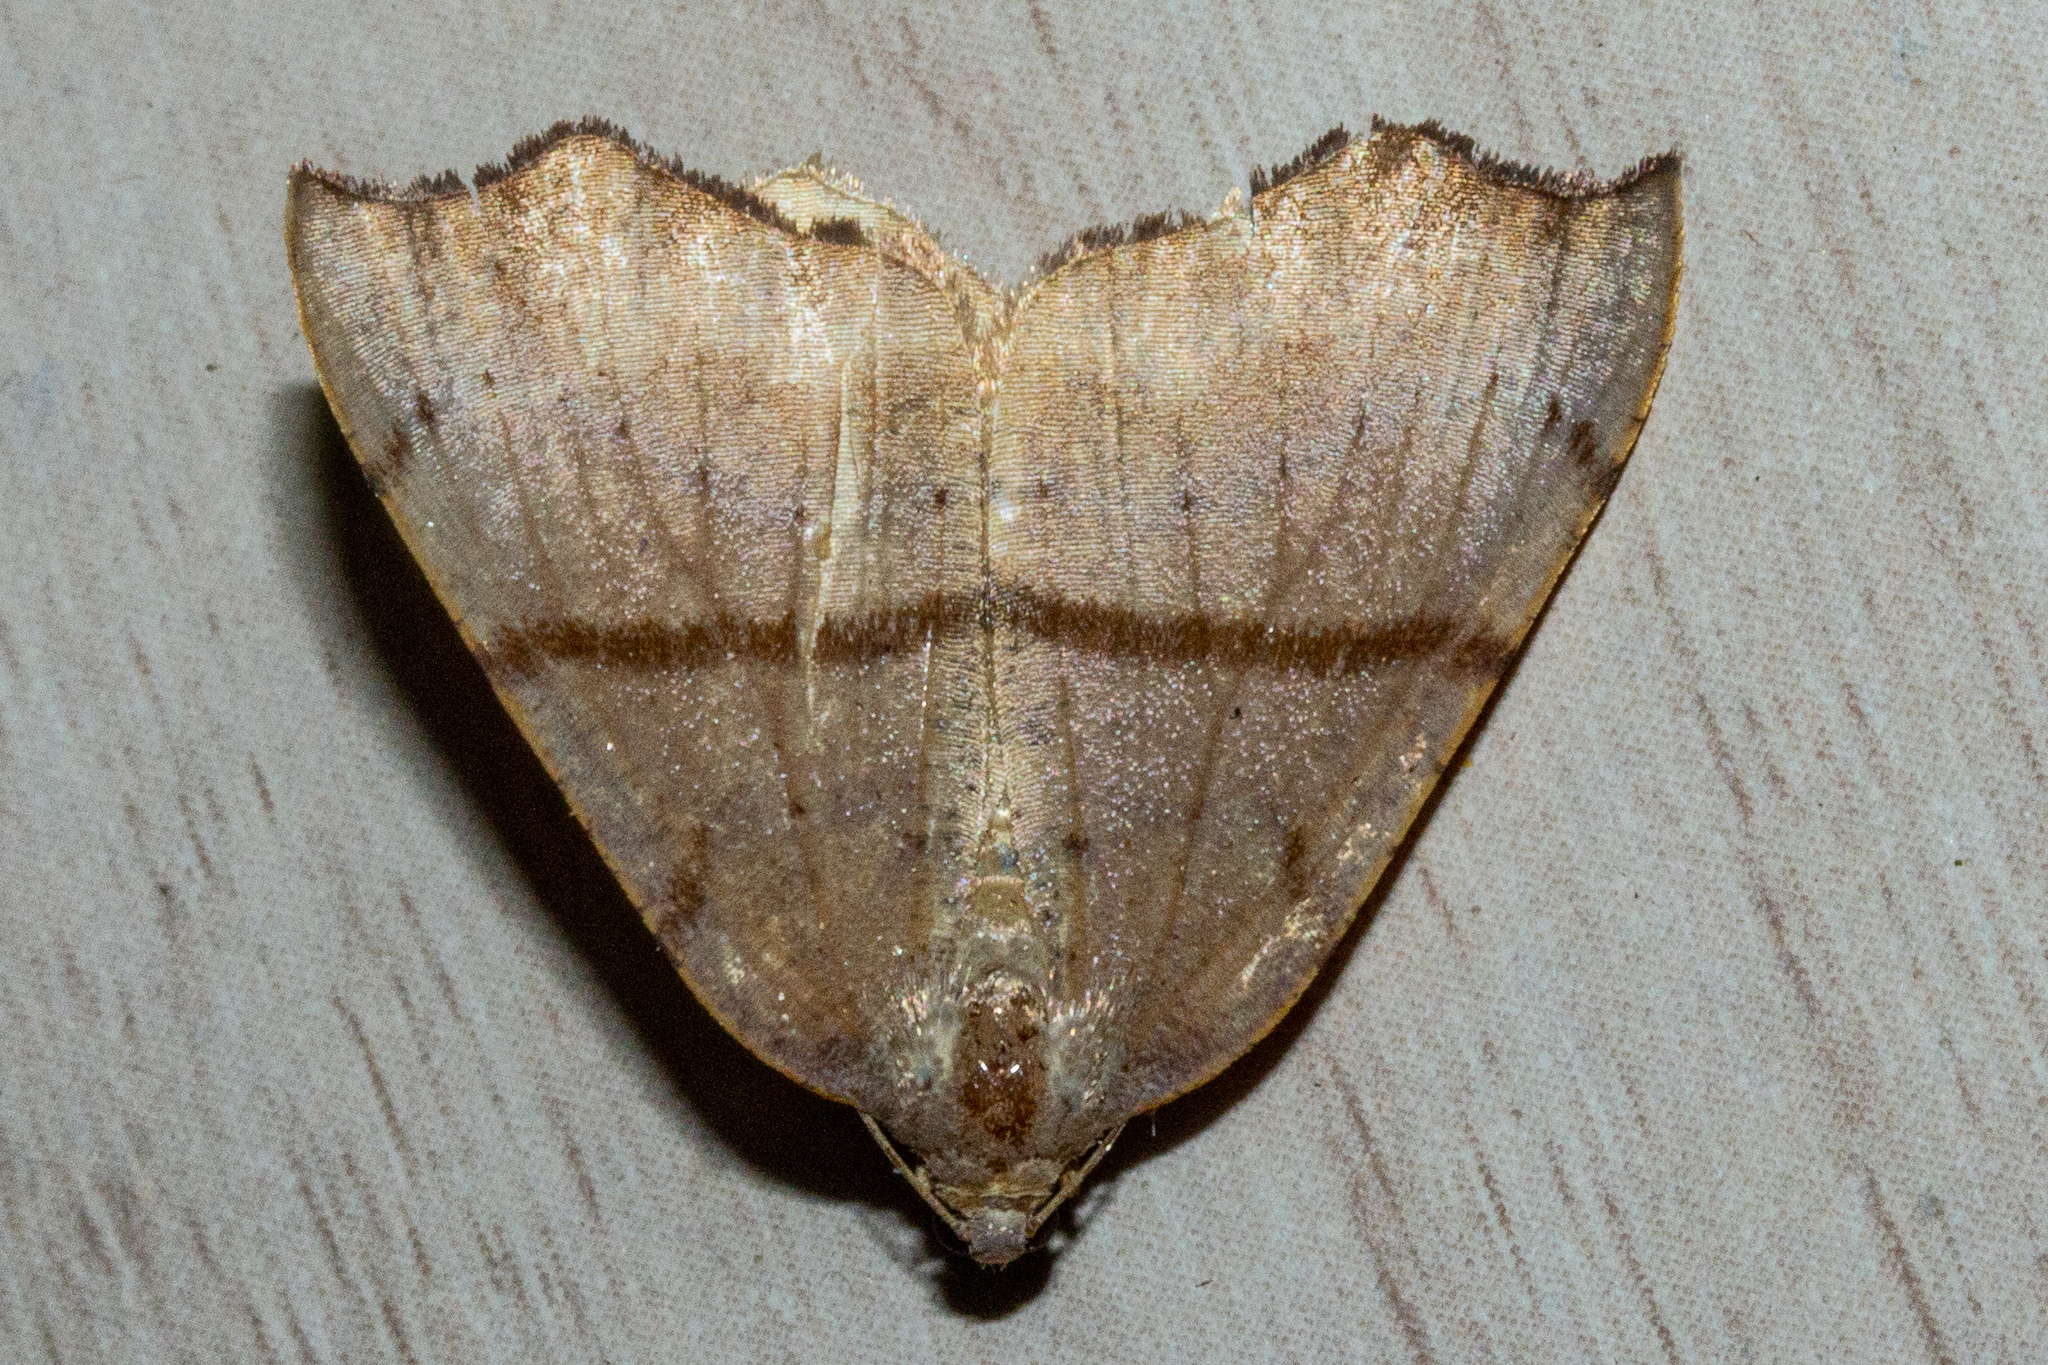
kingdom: Animalia
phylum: Arthropoda
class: Insecta
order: Lepidoptera
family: Geometridae
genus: Sestra
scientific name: Sestra flexata
